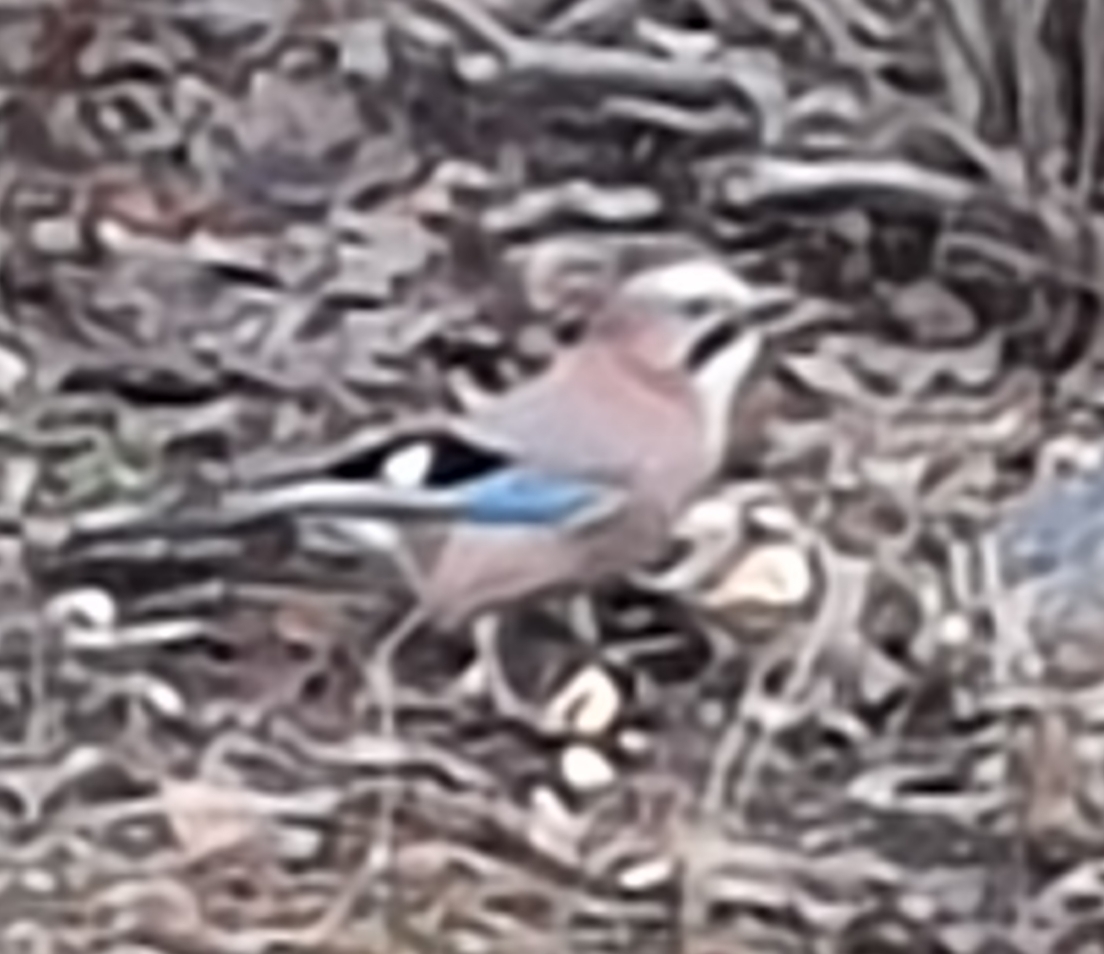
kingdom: Animalia
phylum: Chordata
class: Aves
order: Passeriformes
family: Corvidae
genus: Garrulus
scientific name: Garrulus glandarius
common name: Eurasian jay
